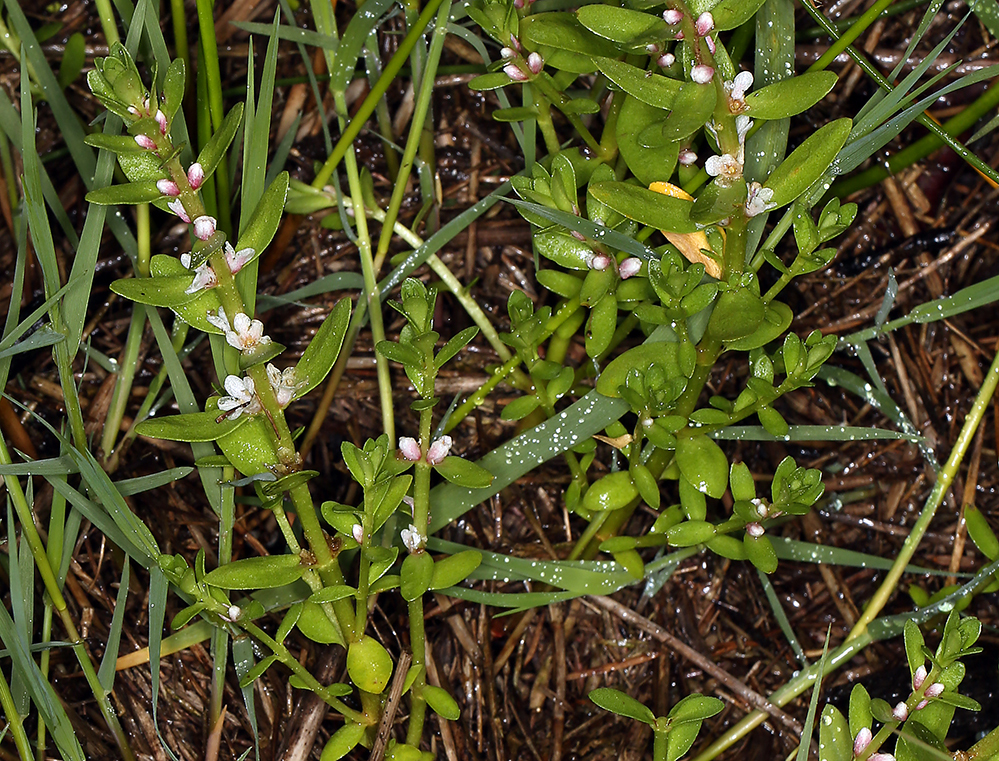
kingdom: Plantae
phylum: Tracheophyta
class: Magnoliopsida
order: Ericales
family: Primulaceae
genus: Lysimachia
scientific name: Lysimachia maritima
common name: Sea milkwort
